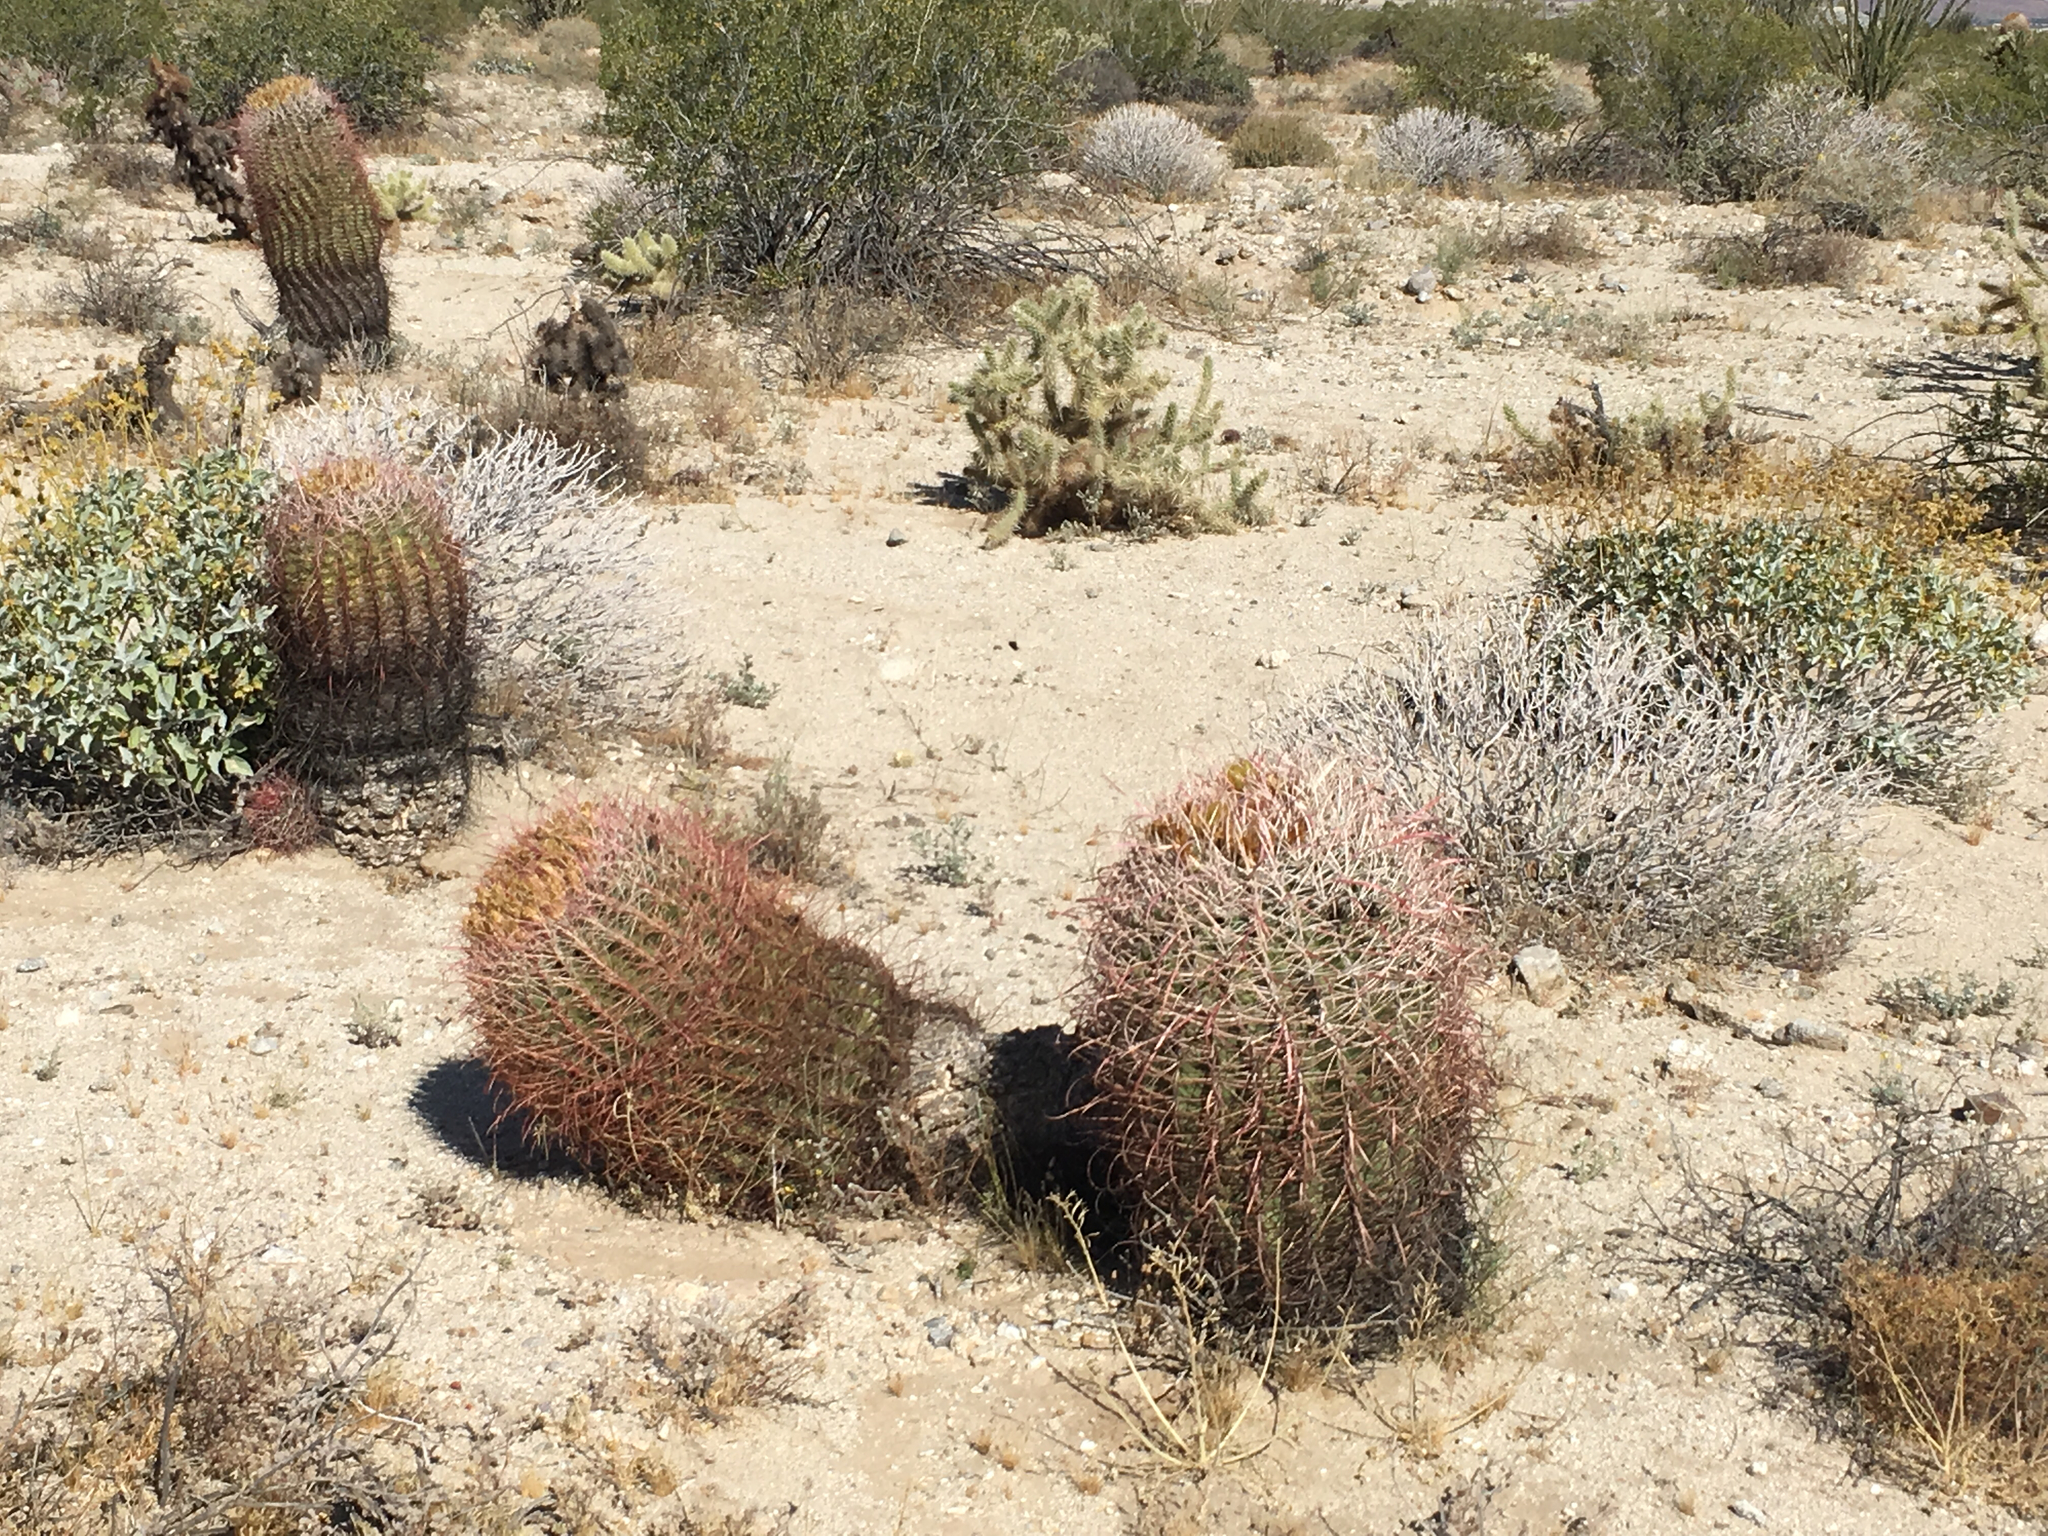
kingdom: Plantae
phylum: Tracheophyta
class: Magnoliopsida
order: Caryophyllales
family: Cactaceae
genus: Ferocactus
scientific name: Ferocactus cylindraceus
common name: California barrel cactus
